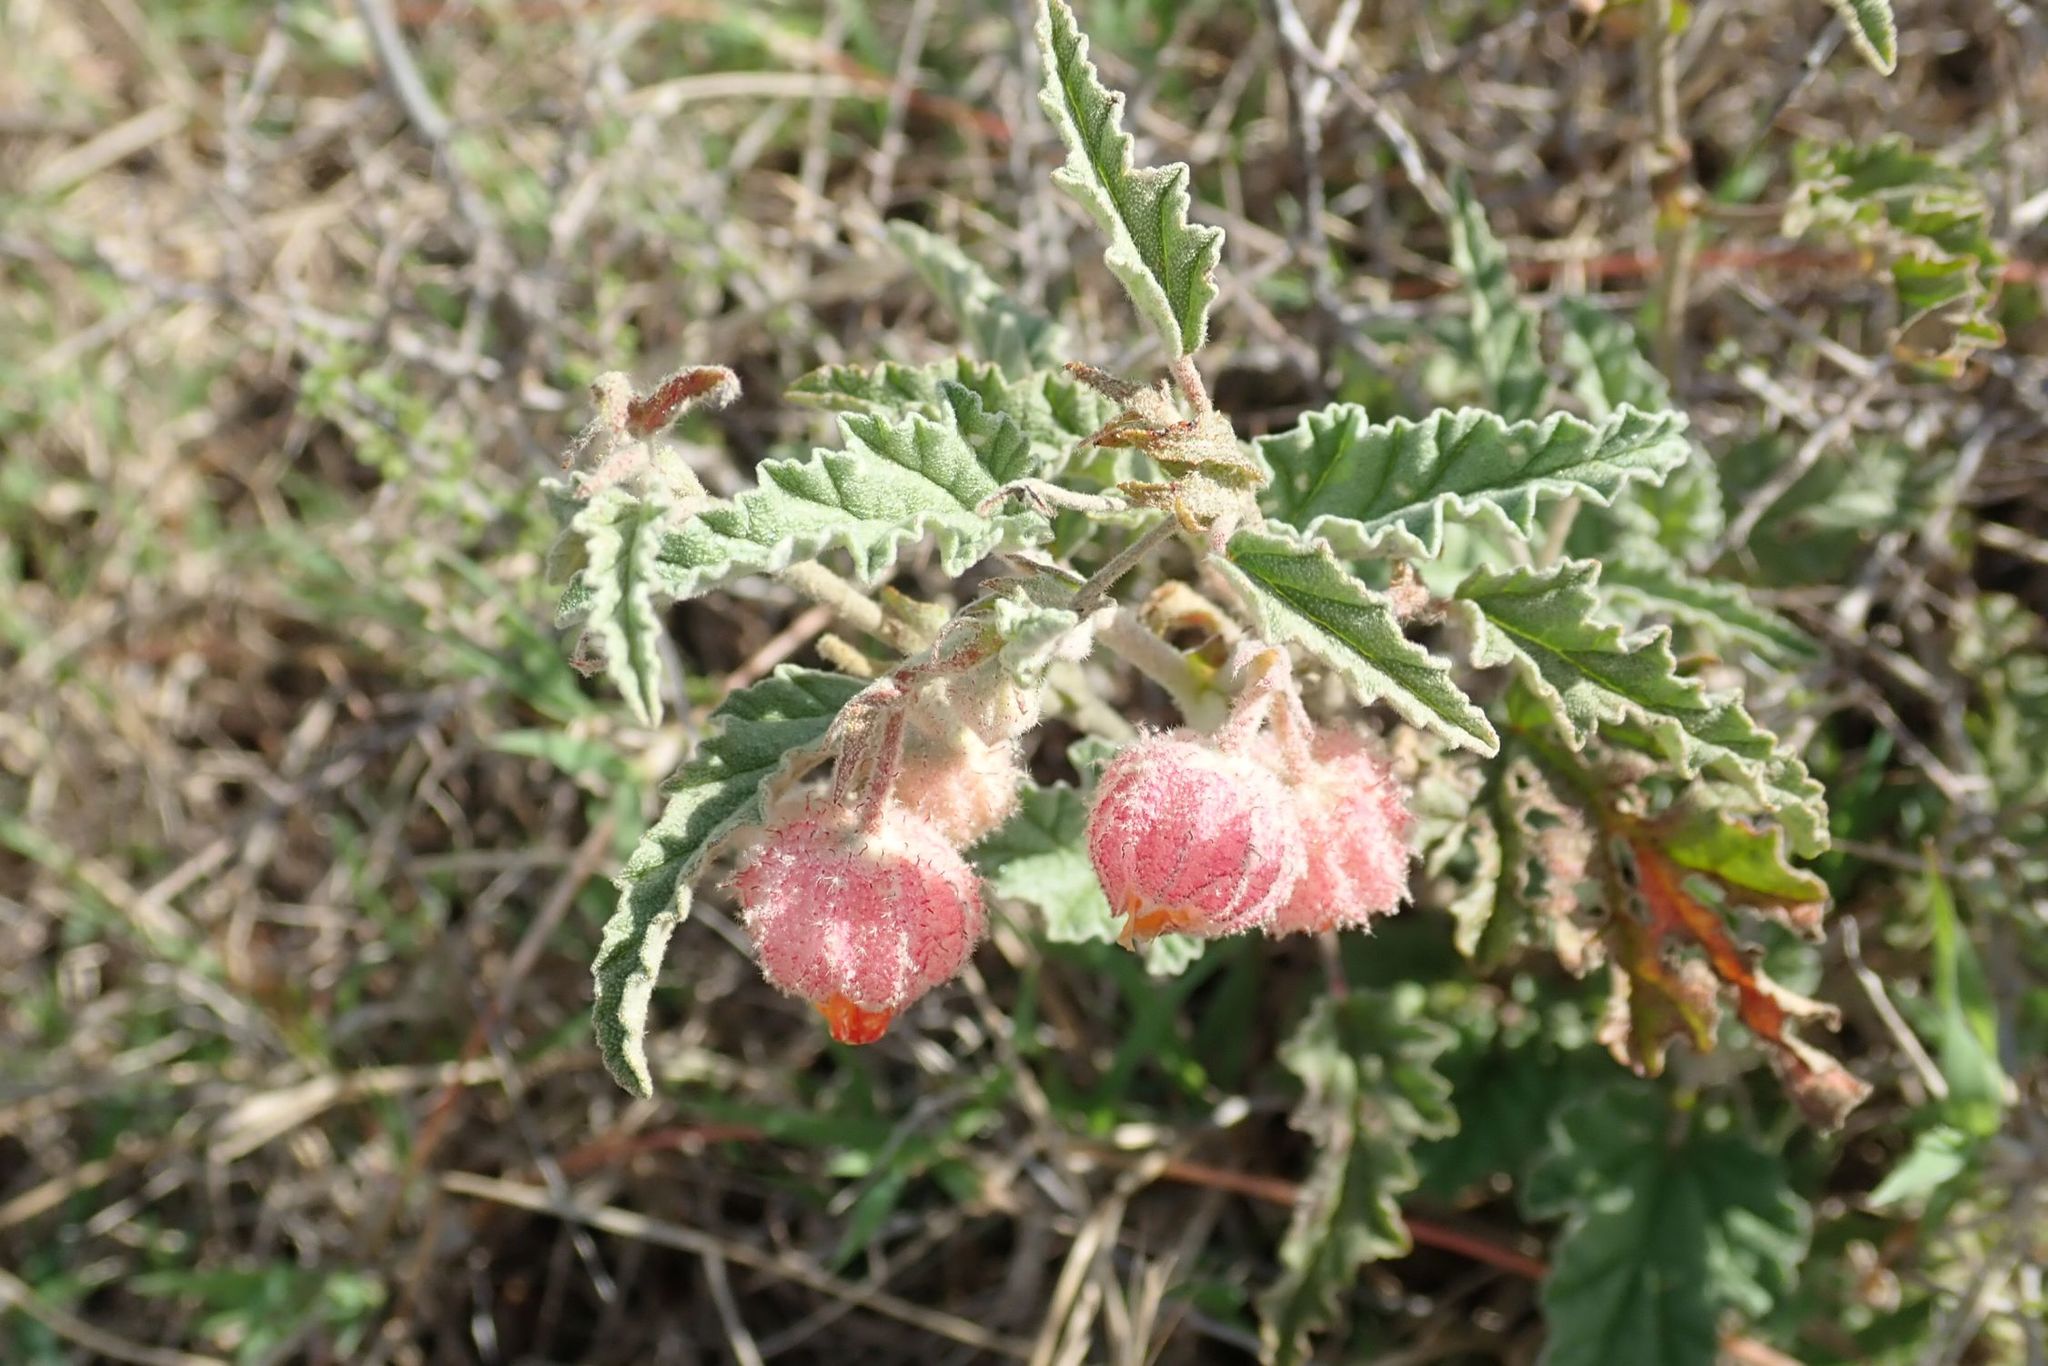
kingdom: Plantae
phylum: Tracheophyta
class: Magnoliopsida
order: Malvales
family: Malvaceae
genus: Hermannia
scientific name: Hermannia comosa
